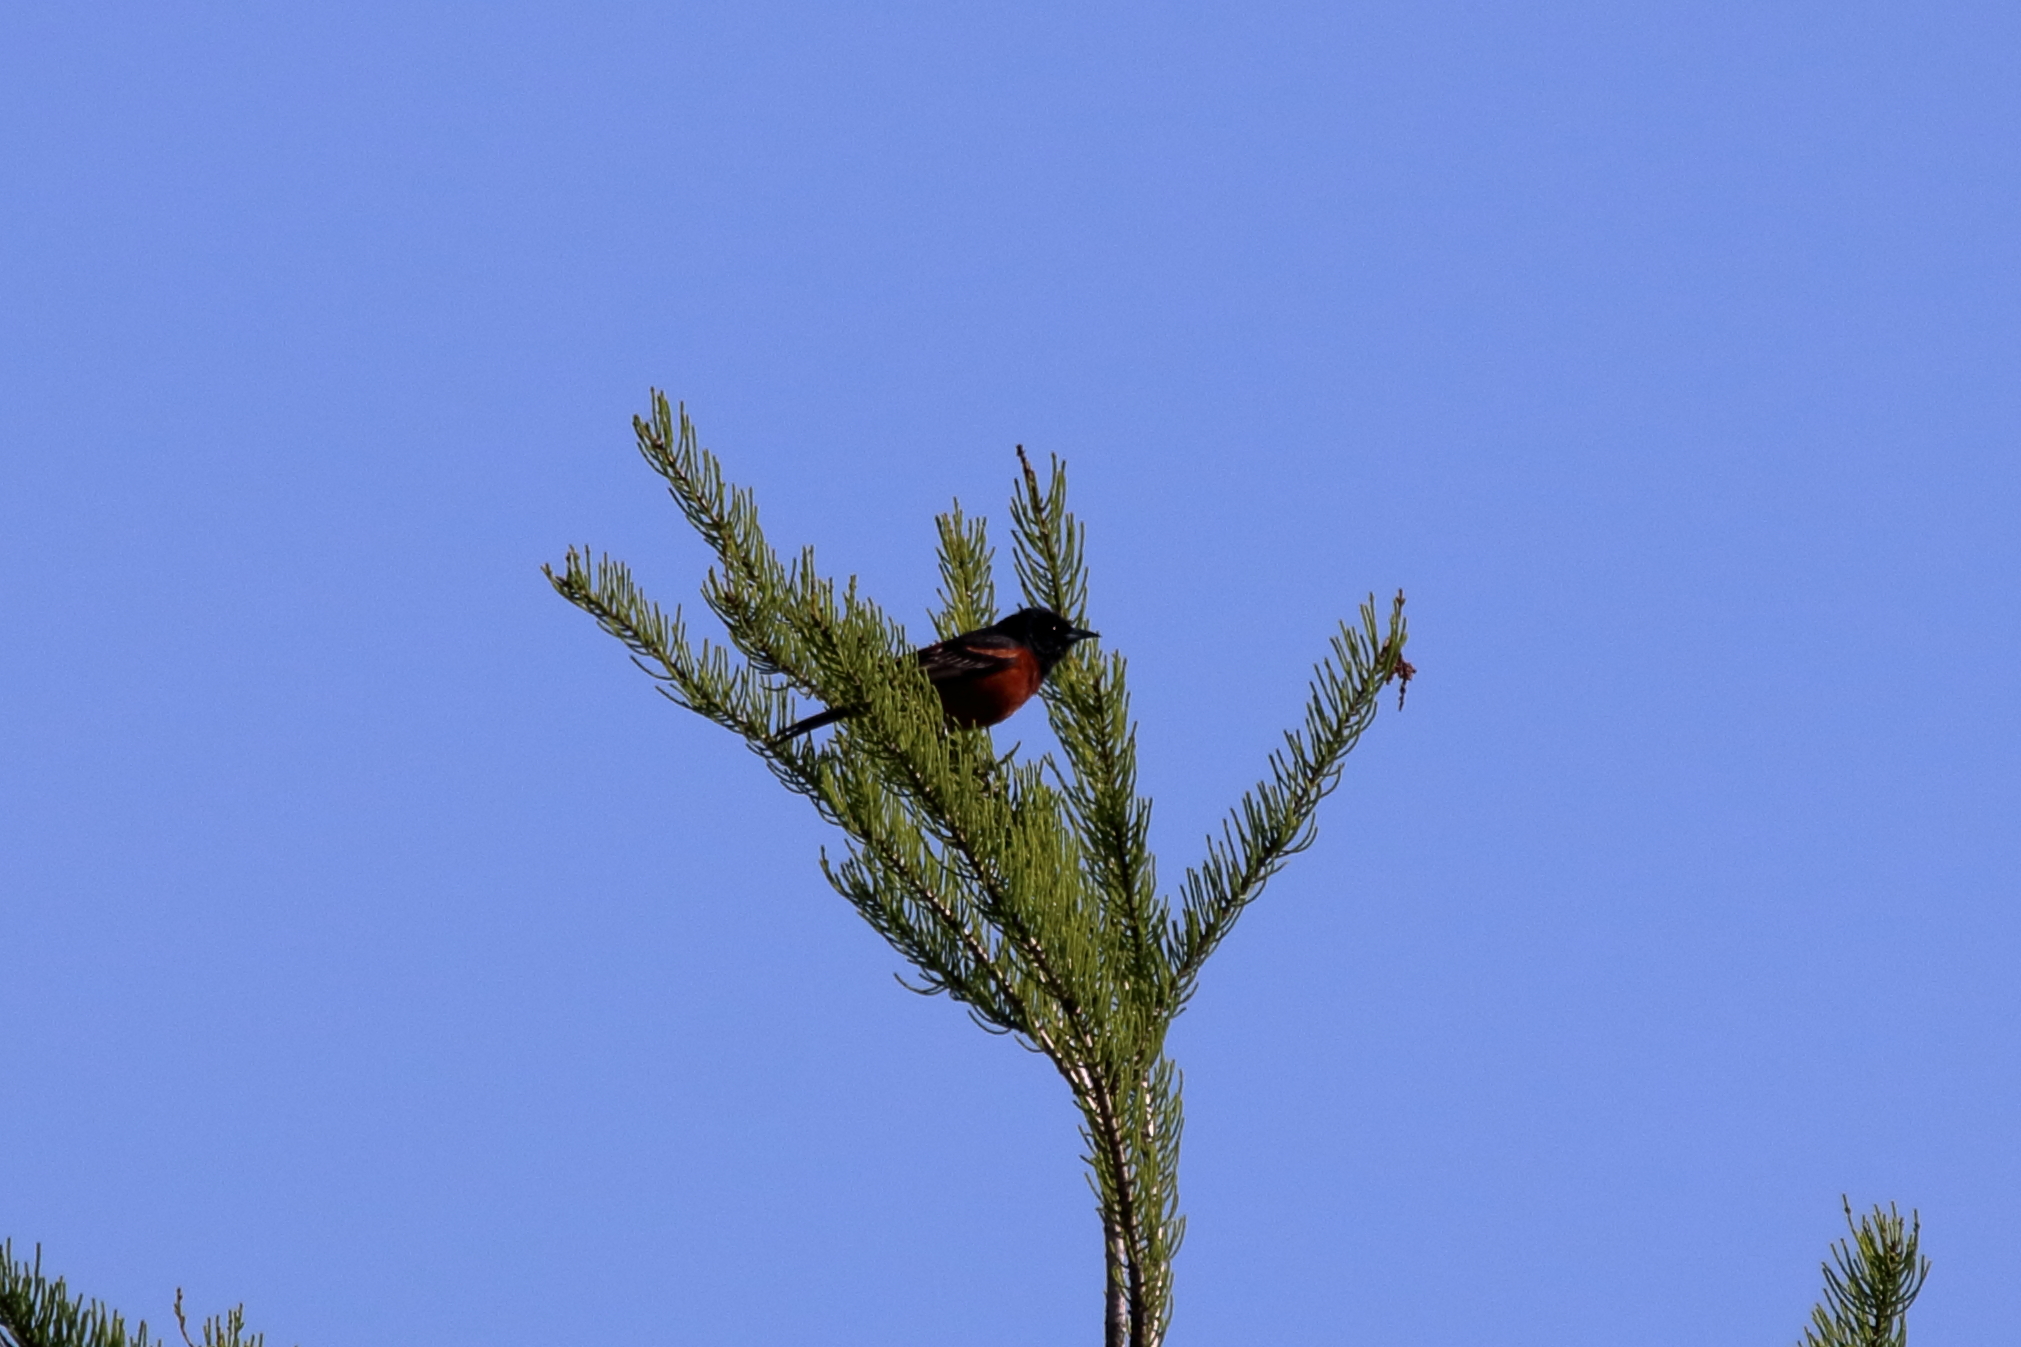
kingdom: Animalia
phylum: Chordata
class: Aves
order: Passeriformes
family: Icteridae
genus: Icterus
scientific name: Icterus spurius
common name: Orchard oriole
